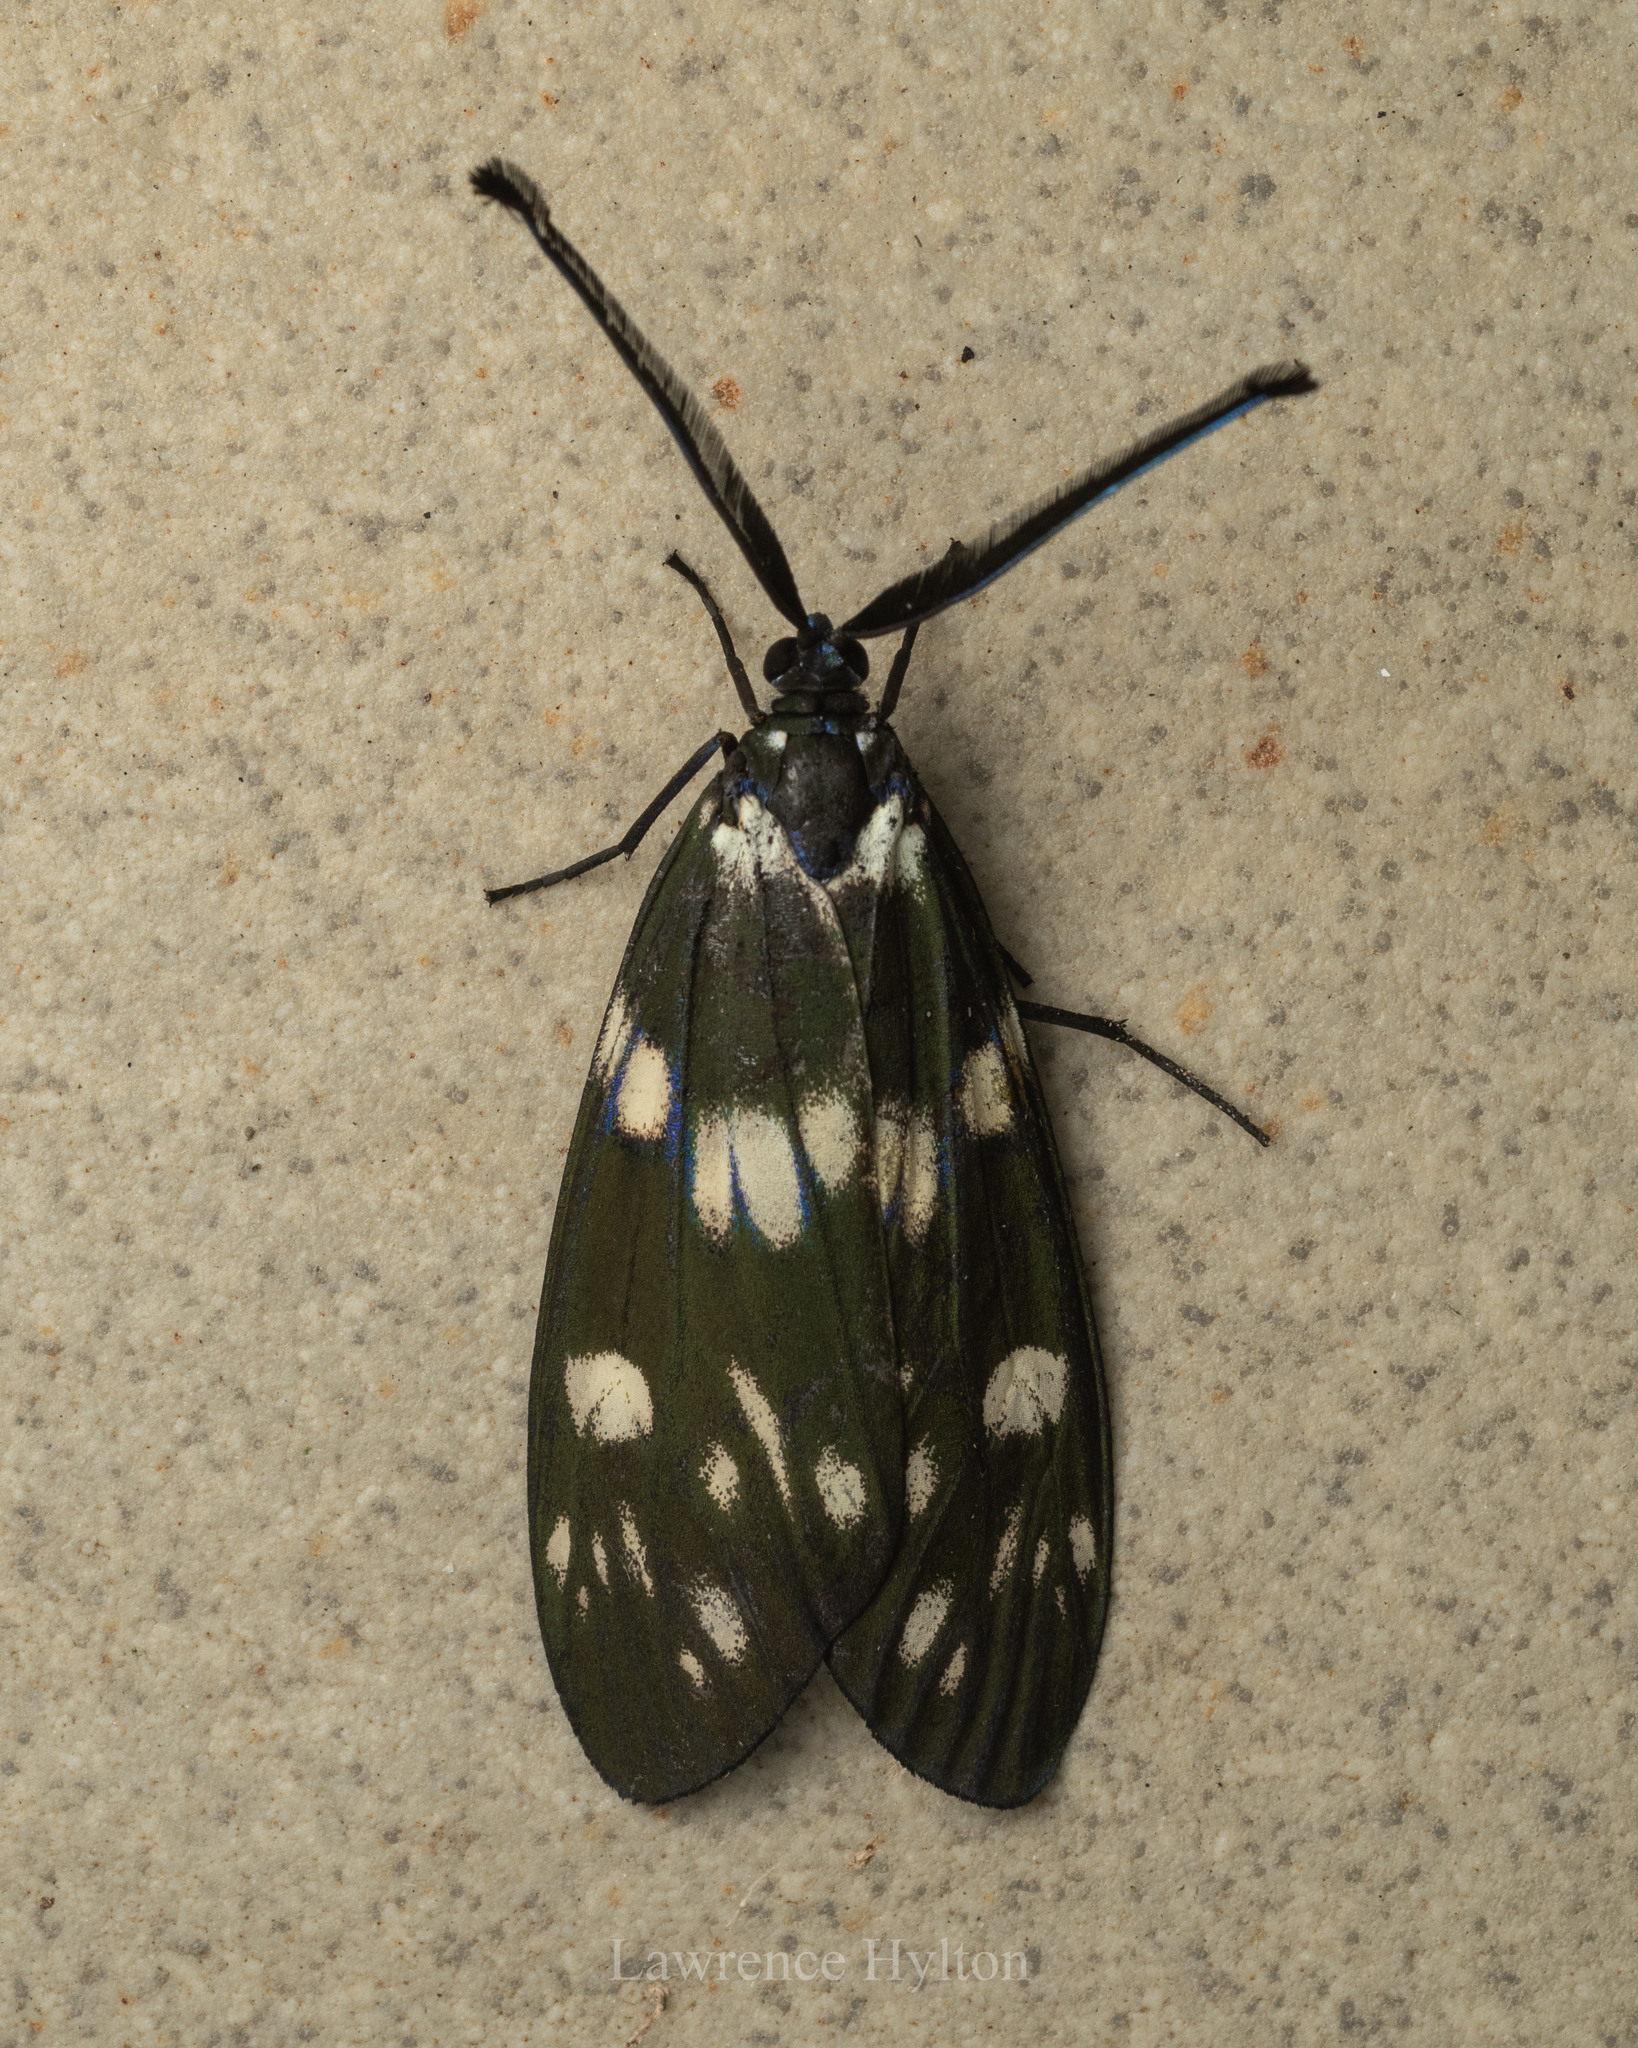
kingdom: Animalia
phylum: Arthropoda
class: Insecta
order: Lepidoptera
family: Zygaenidae
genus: Eterusia
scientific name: Eterusia aedea
